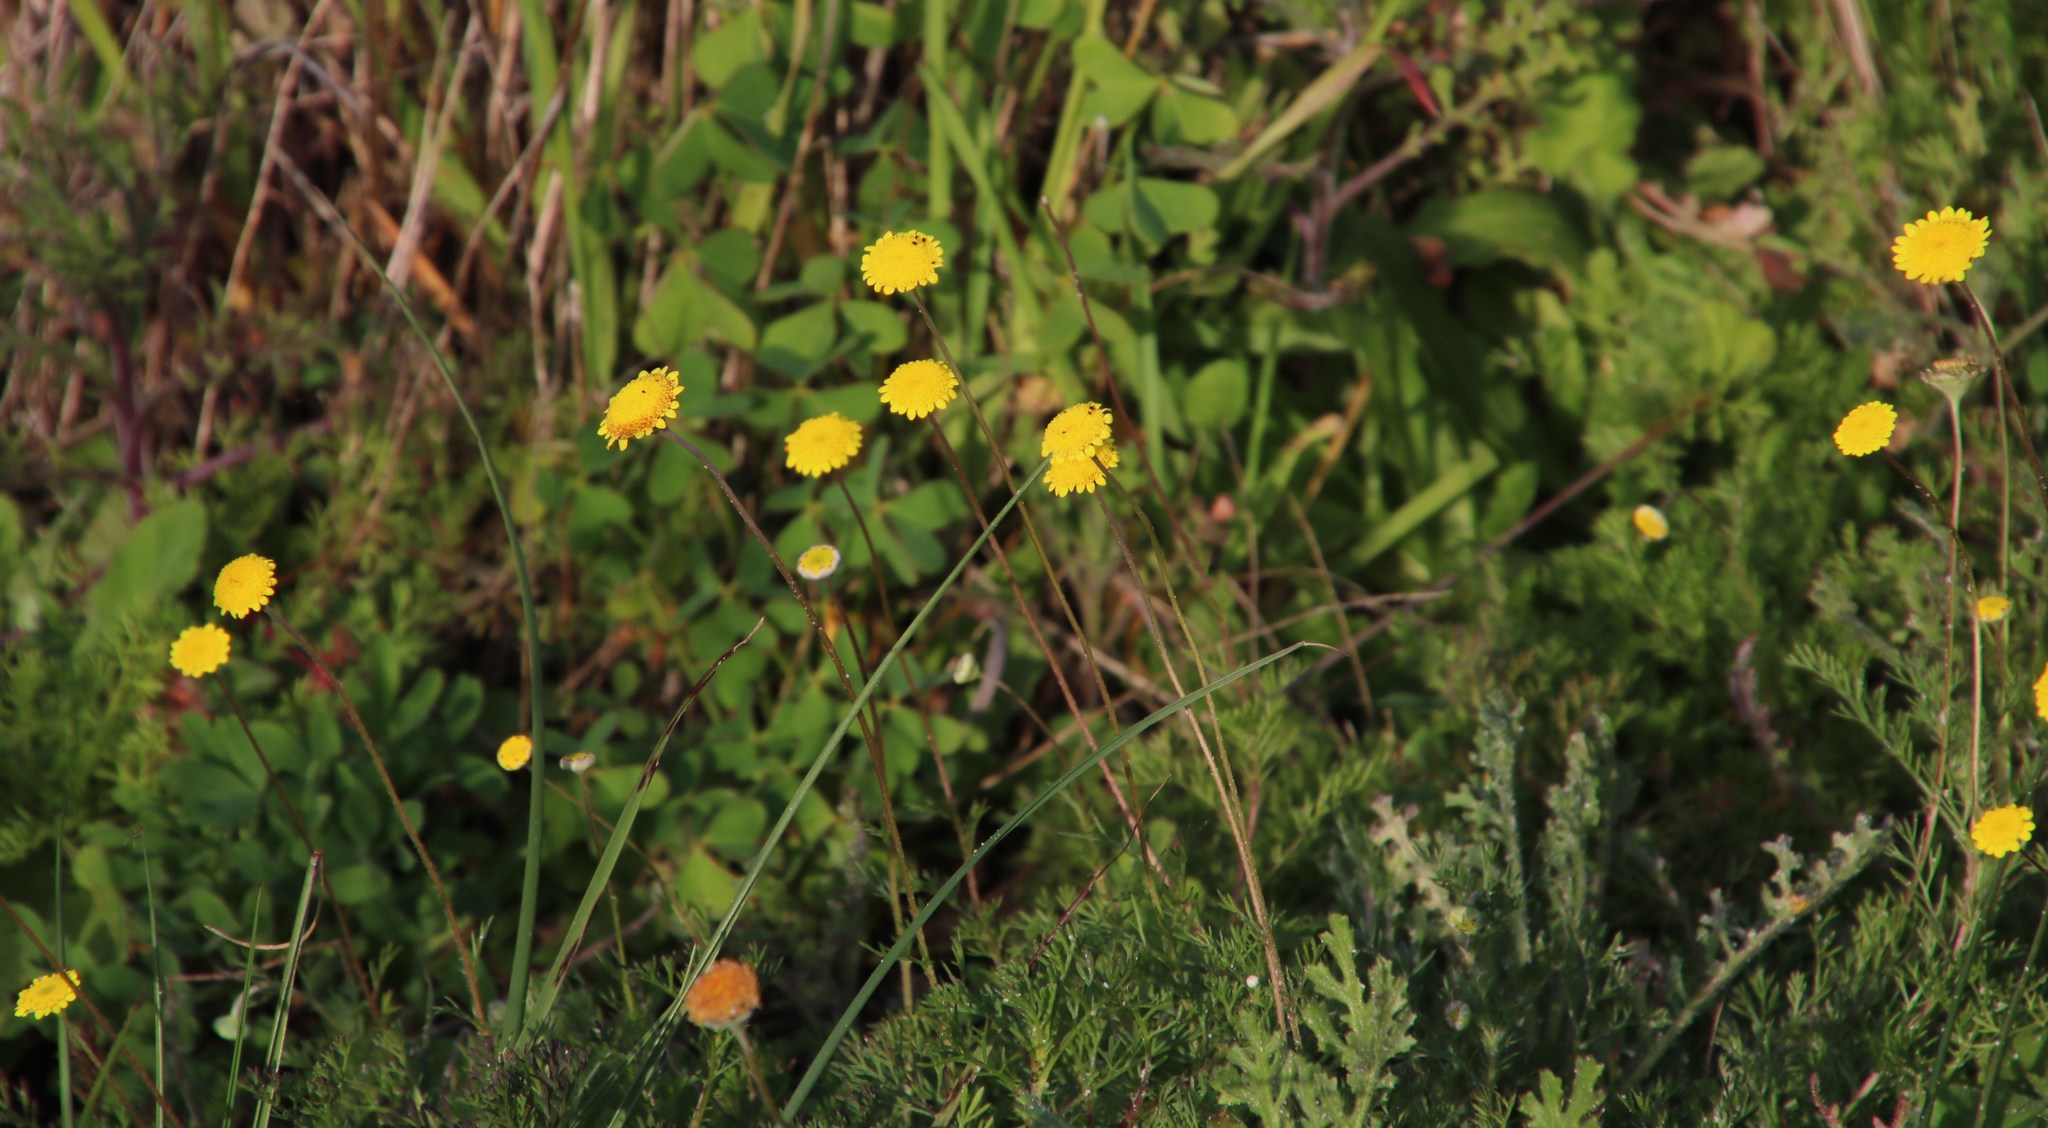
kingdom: Plantae
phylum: Tracheophyta
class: Magnoliopsida
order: Asterales
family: Asteraceae
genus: Cotula
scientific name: Cotula pruinosa
